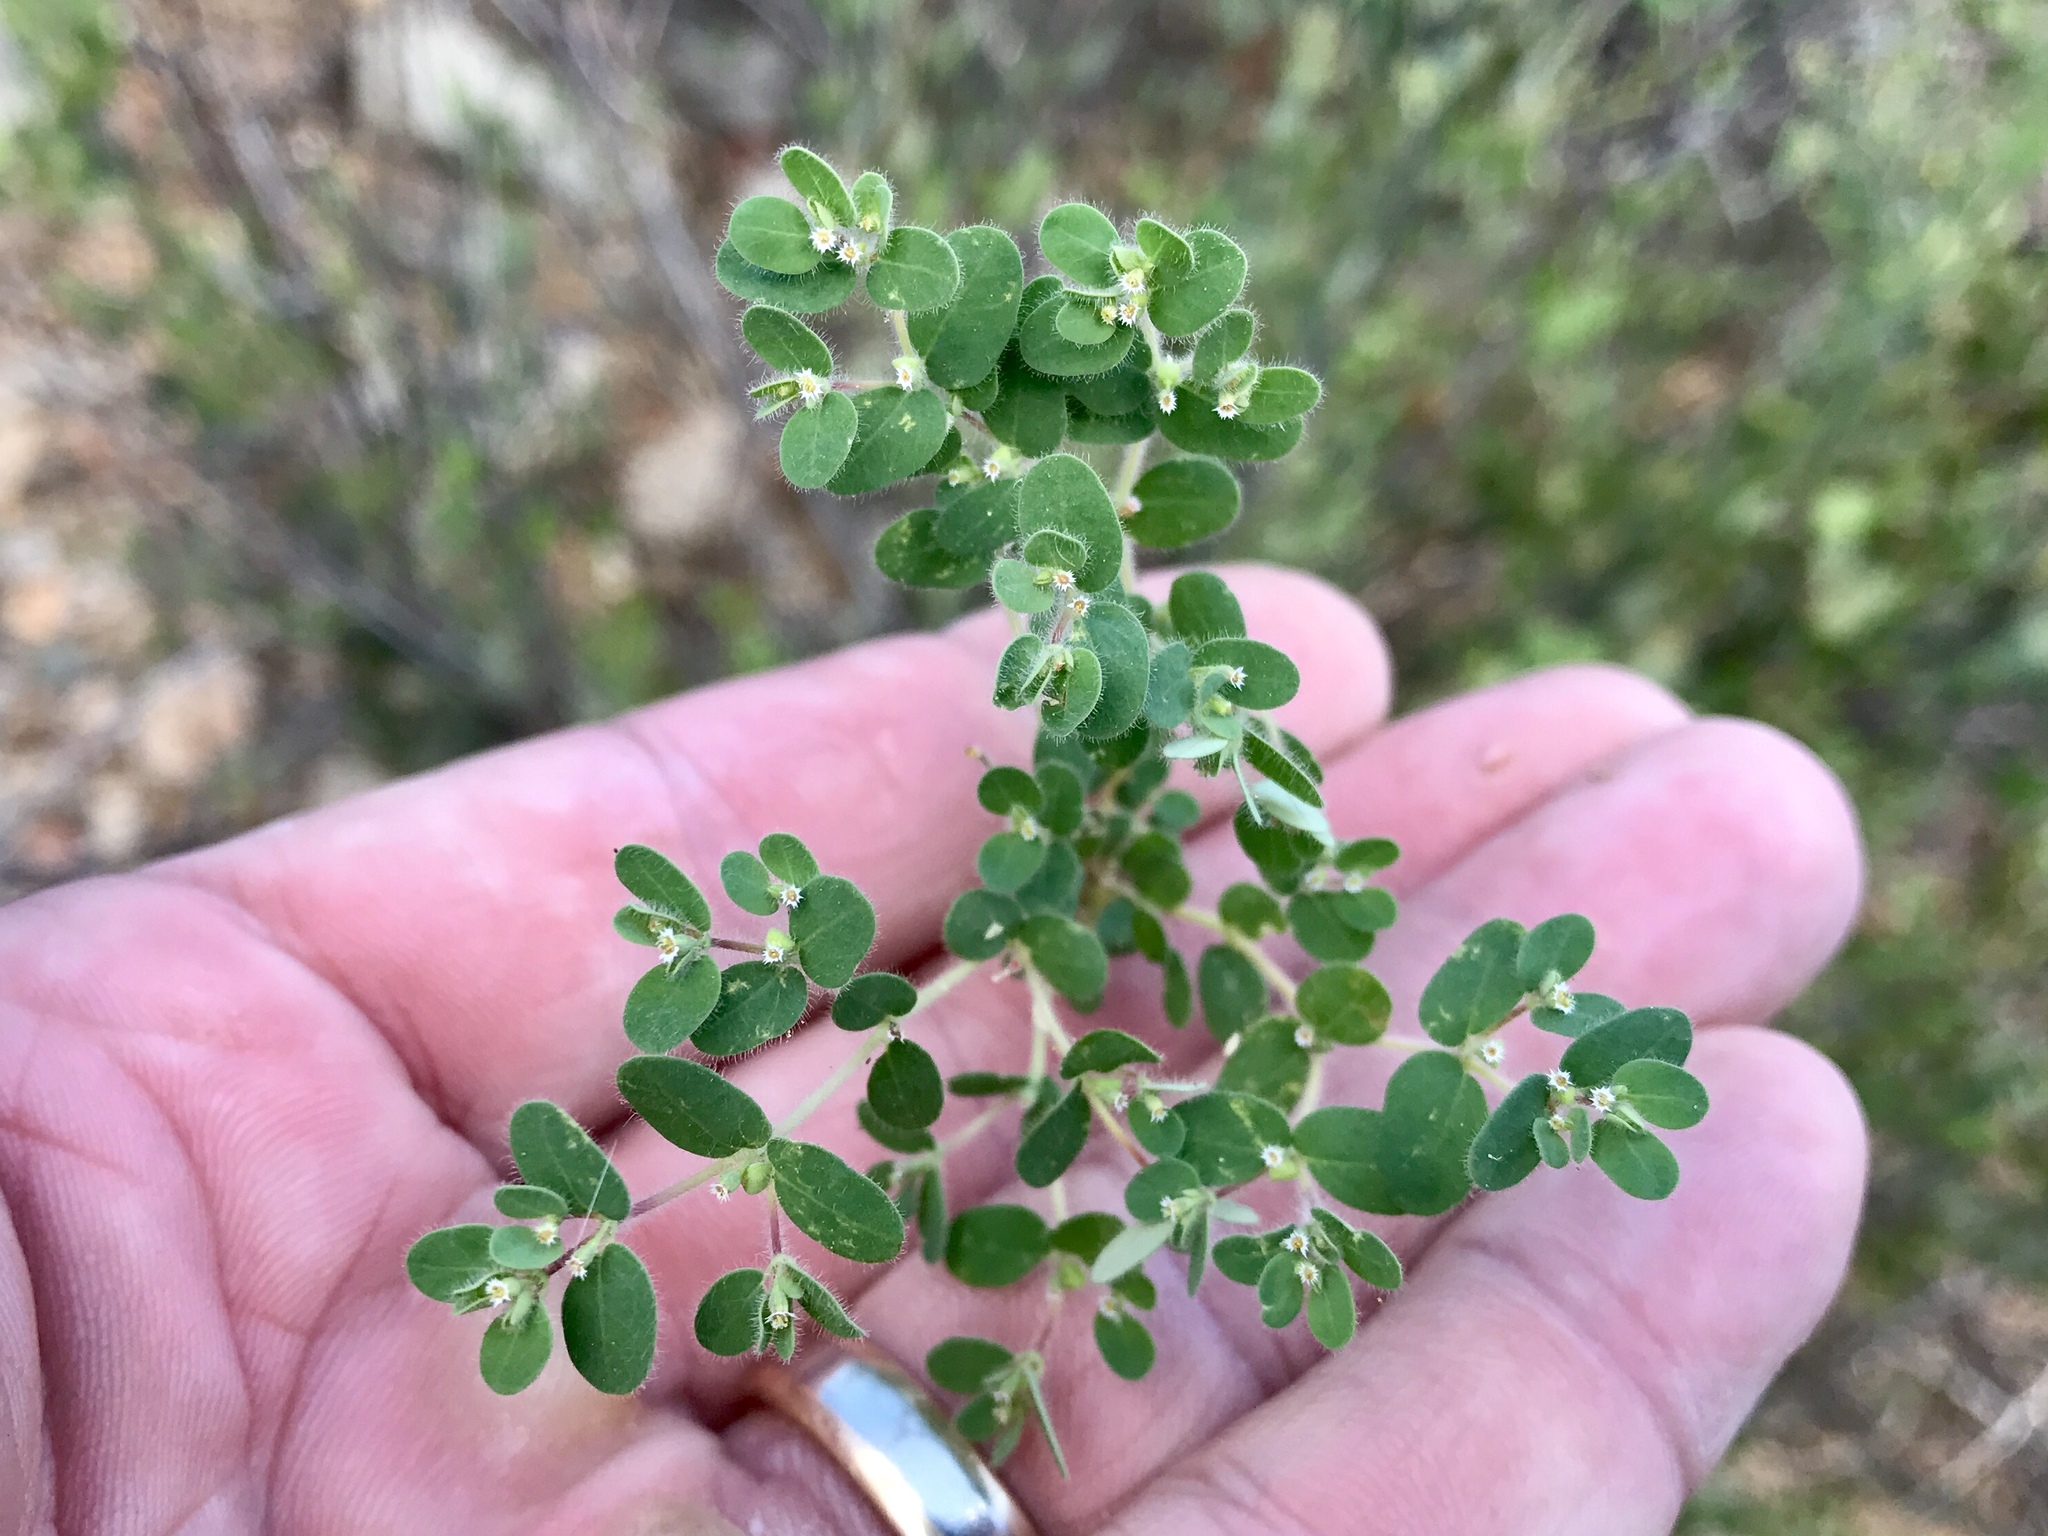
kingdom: Plantae
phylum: Tracheophyta
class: Magnoliopsida
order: Malpighiales
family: Euphorbiaceae
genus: Euphorbia
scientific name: Euphorbia setiloba
